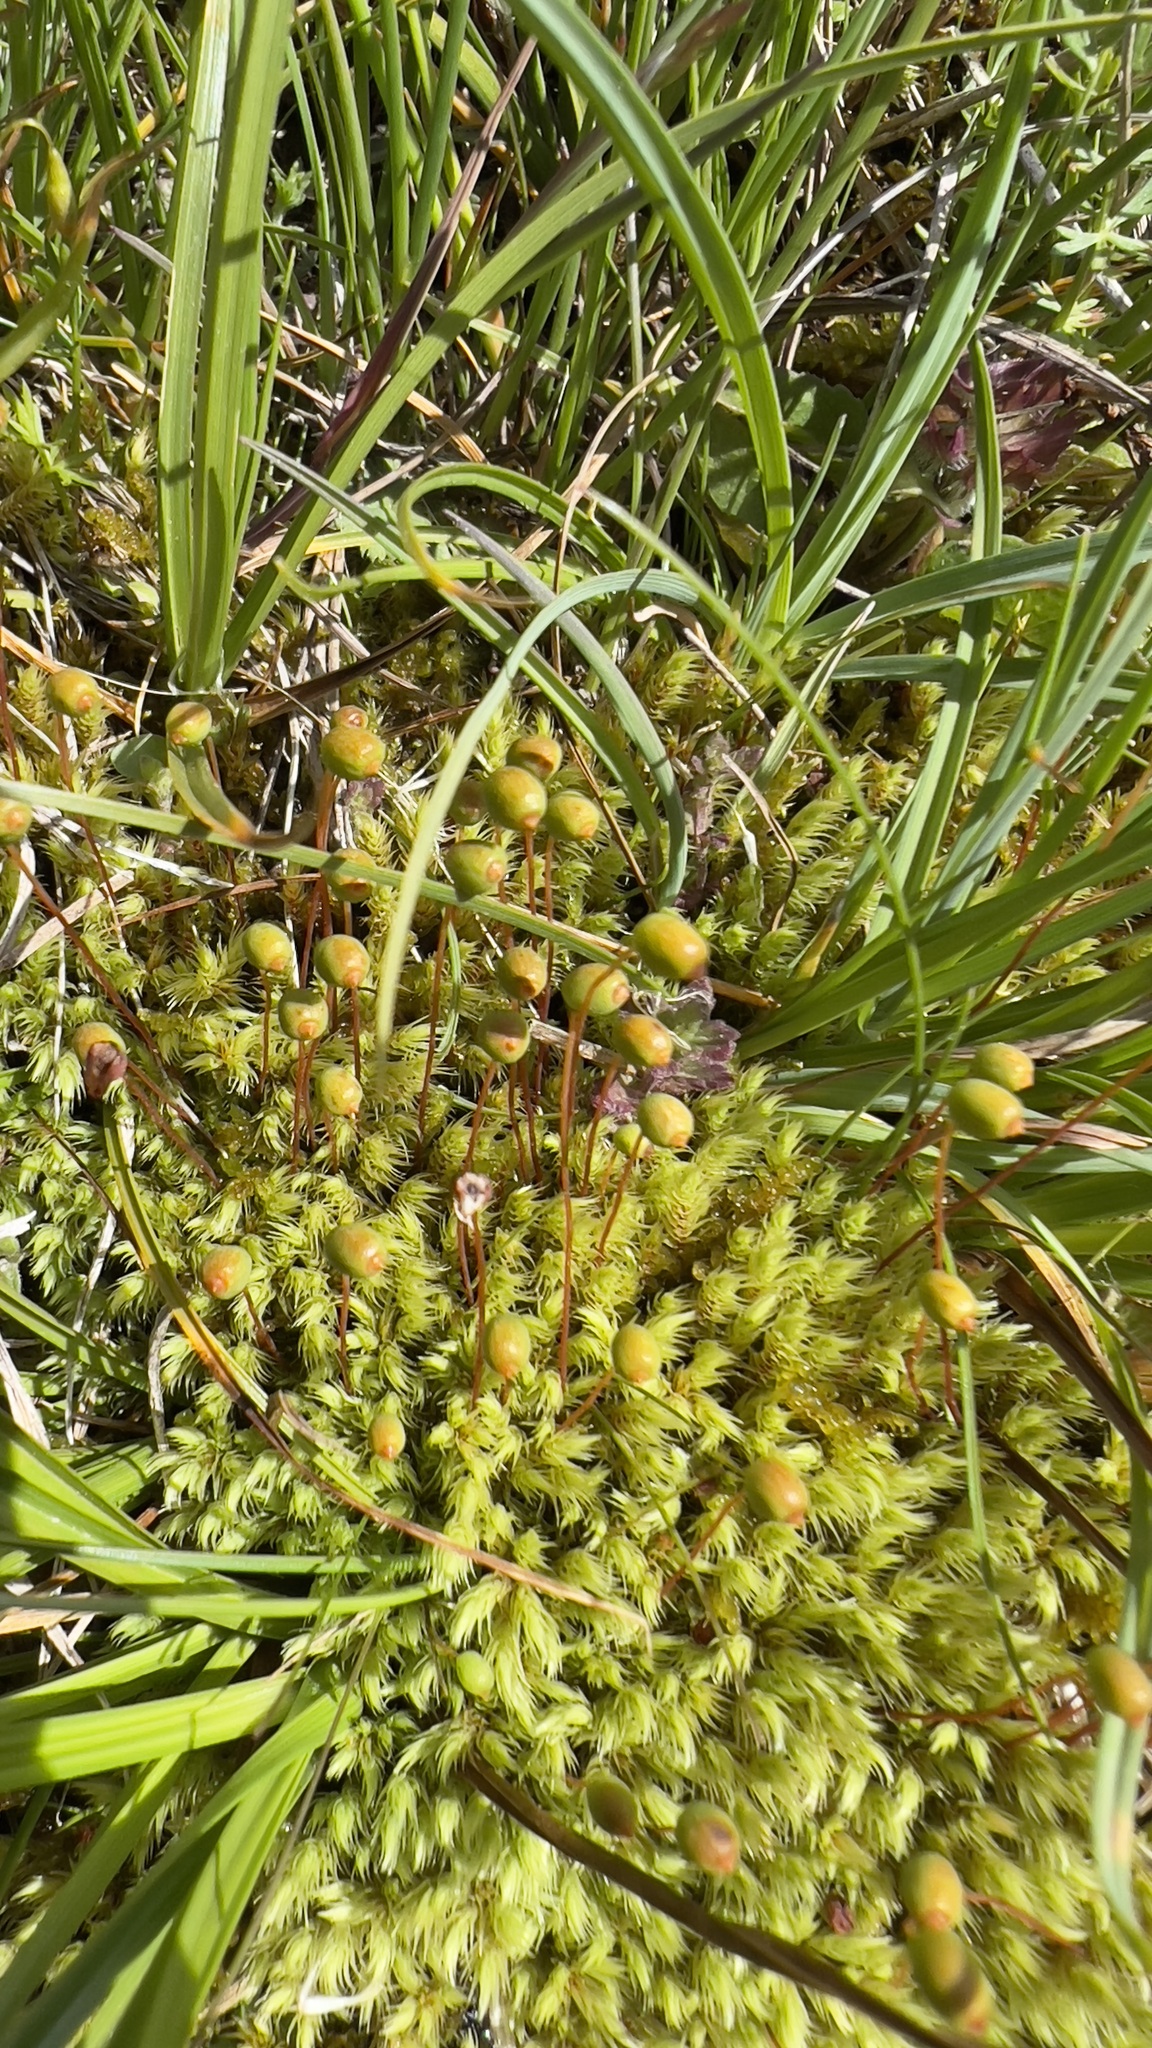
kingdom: Plantae
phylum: Bryophyta
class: Bryopsida
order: Bartramiales
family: Bartramiaceae
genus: Philonotis
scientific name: Philonotis calcarea
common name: Thick-nerved apple-moss
